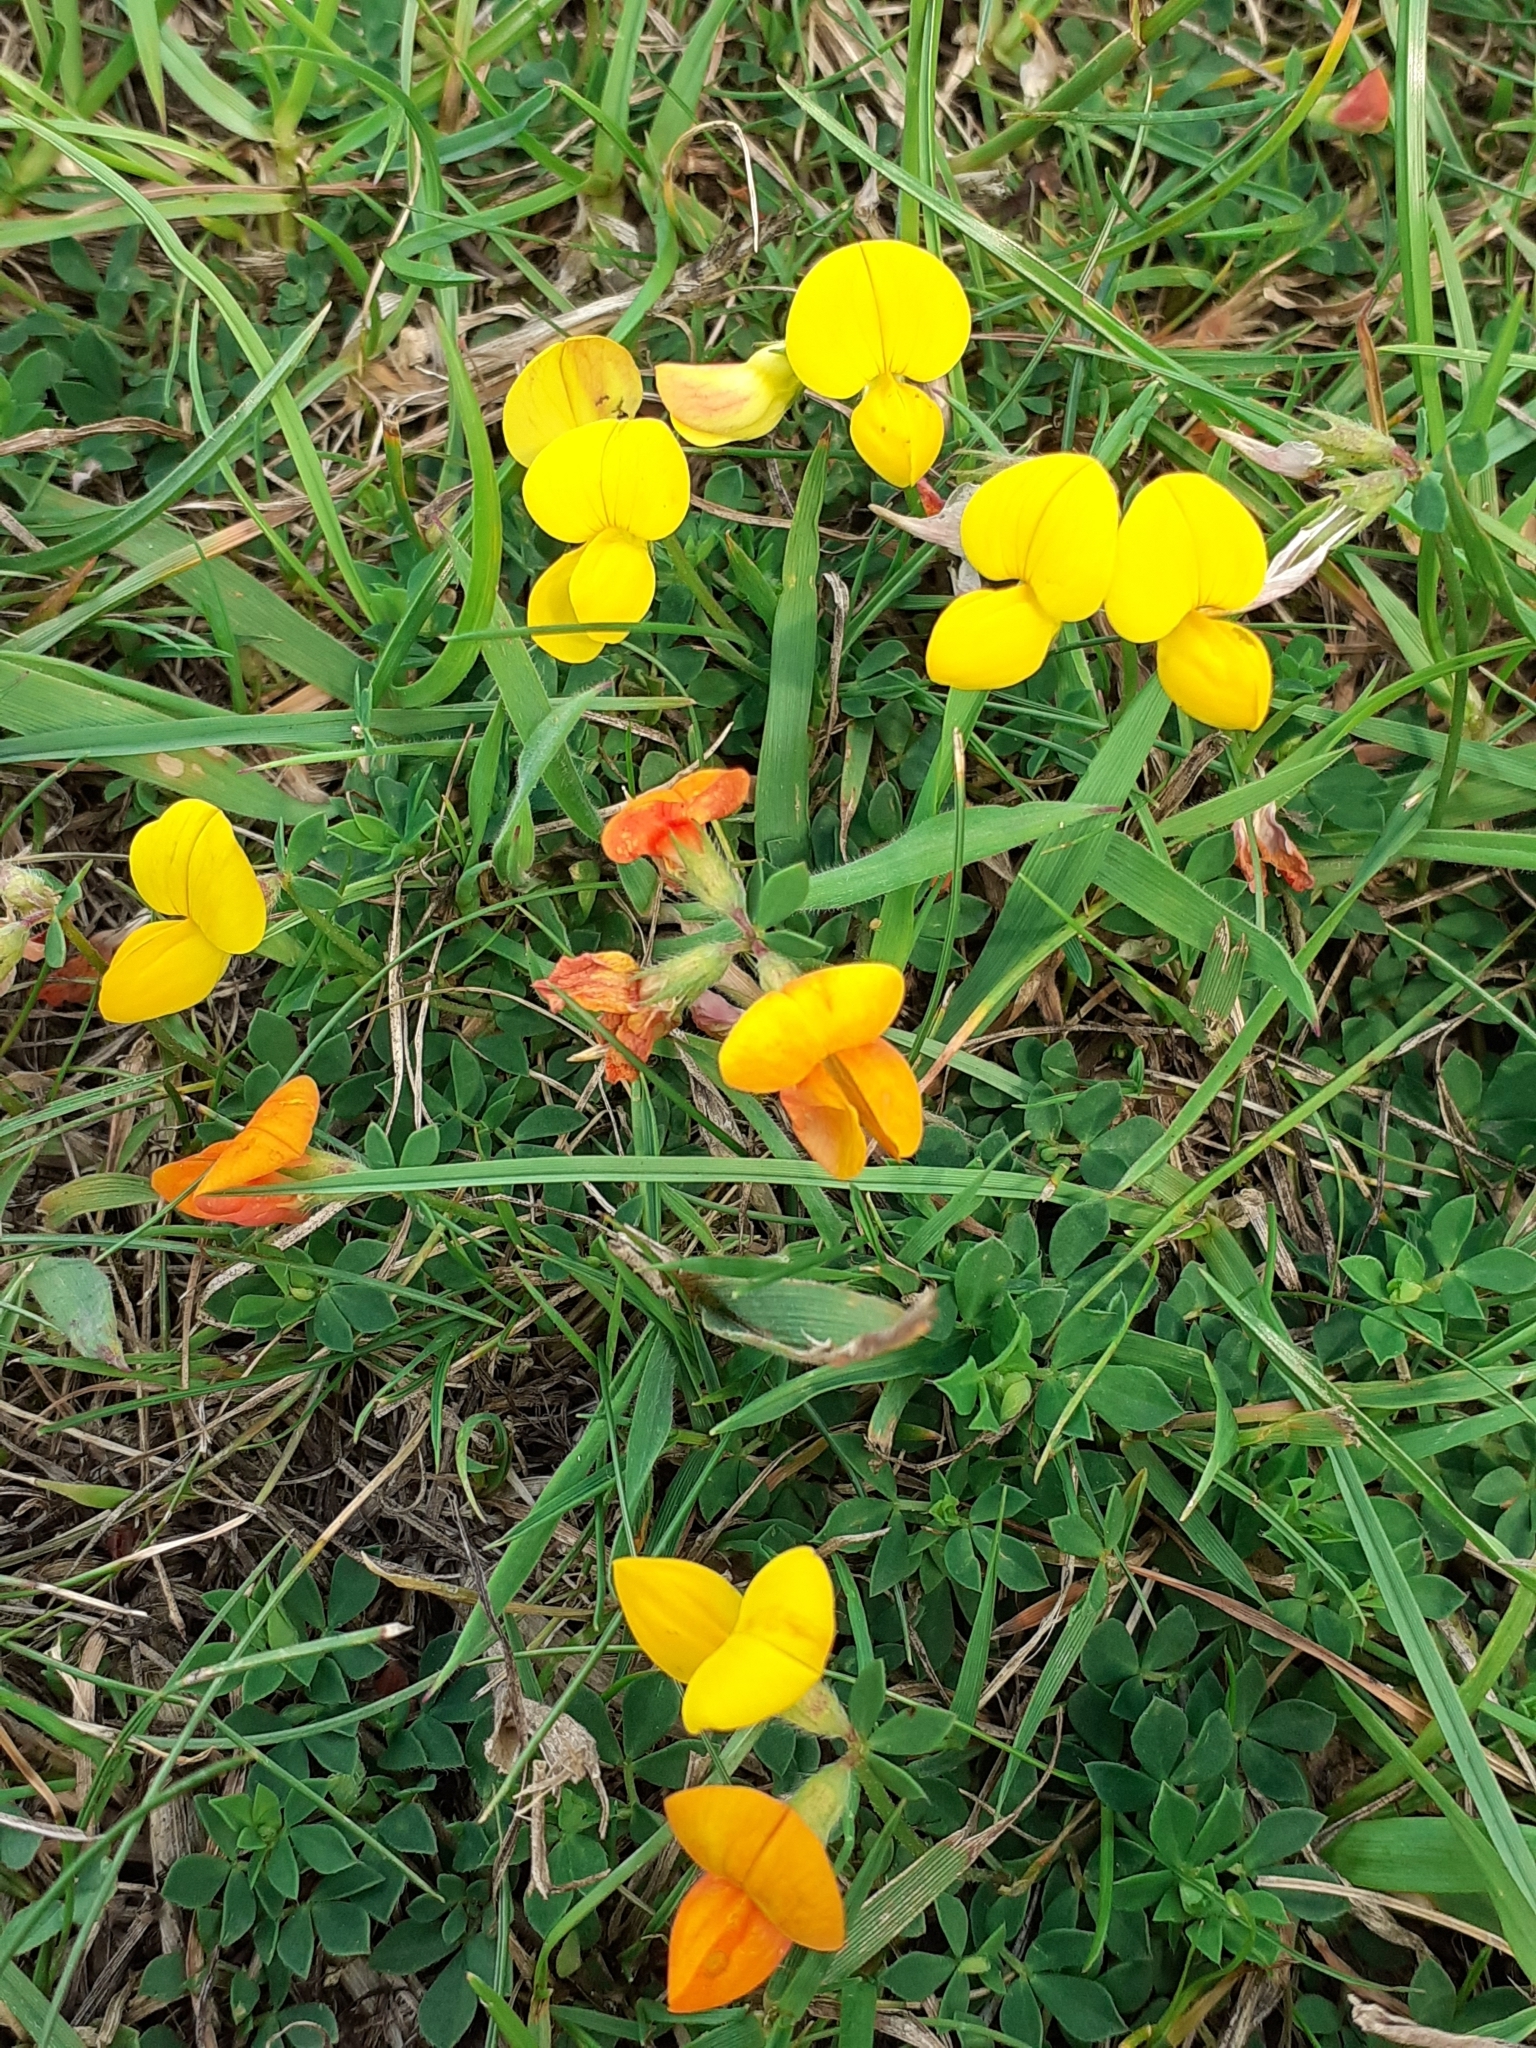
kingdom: Plantae
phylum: Tracheophyta
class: Magnoliopsida
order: Fabales
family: Fabaceae
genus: Lotus
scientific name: Lotus corniculatus
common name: Common bird's-foot-trefoil
